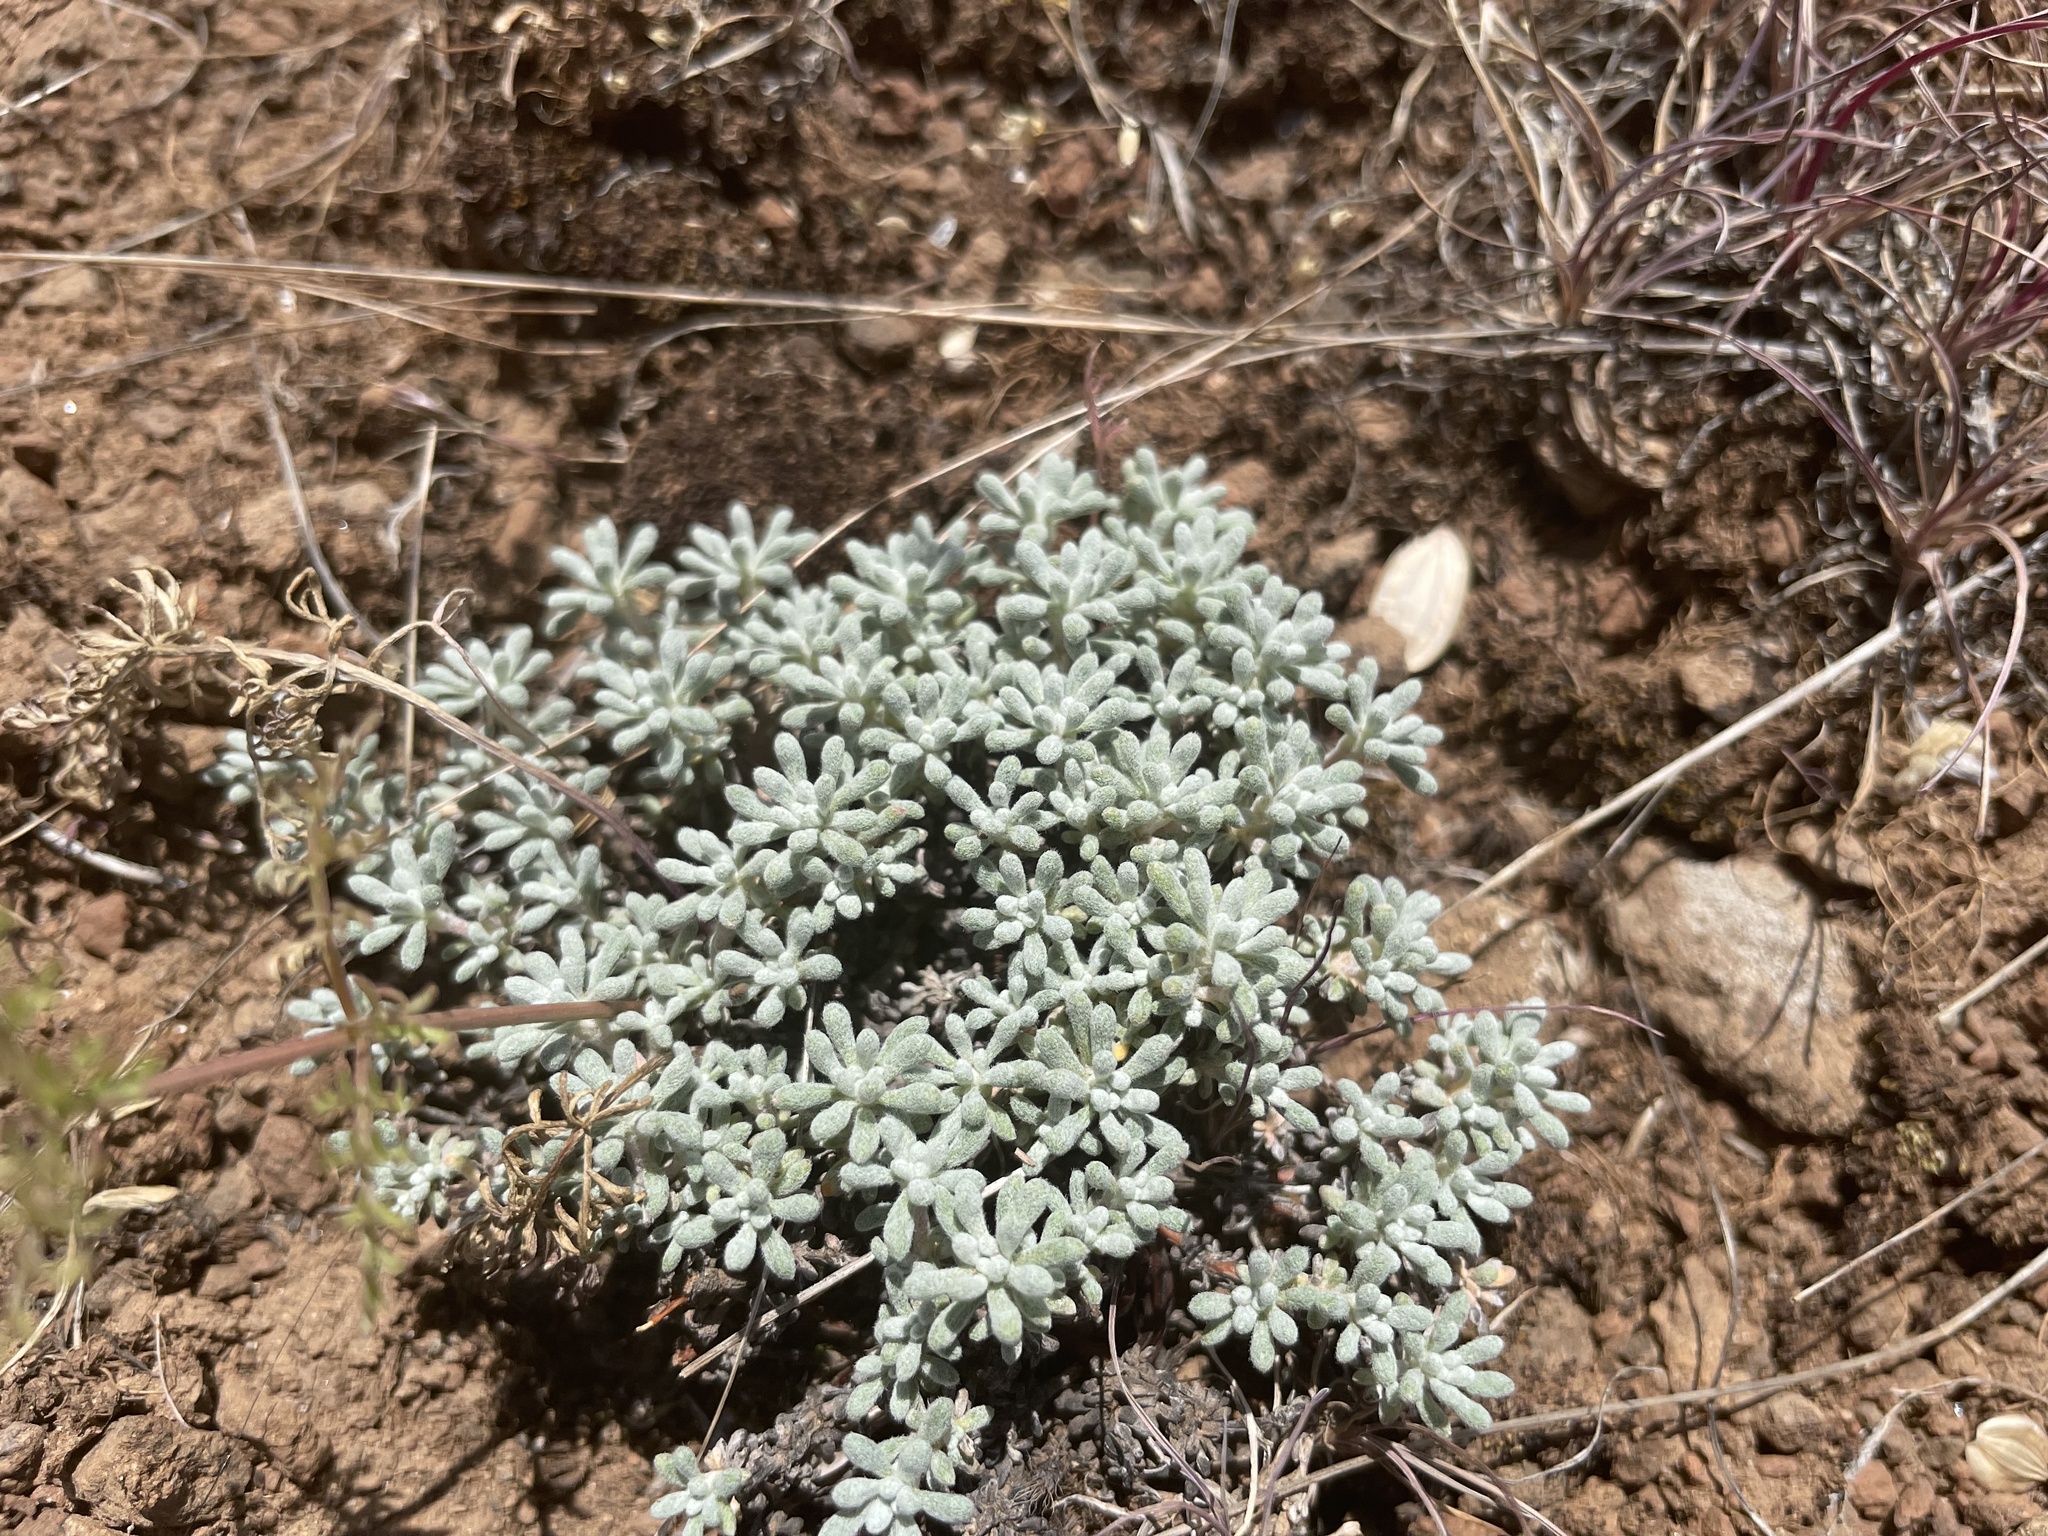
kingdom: Plantae
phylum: Tracheophyta
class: Magnoliopsida
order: Caryophyllales
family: Polygonaceae
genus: Eriogonum
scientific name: Eriogonum thymoides
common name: Thyme-leaf wild buckwheat
